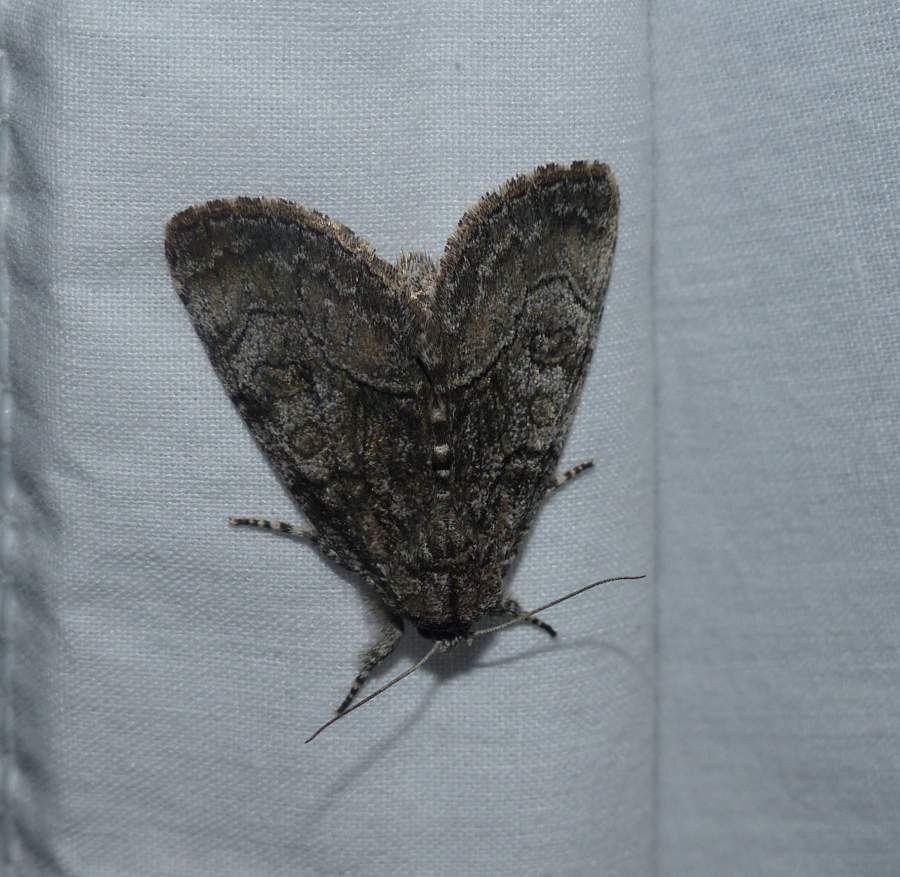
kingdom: Animalia
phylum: Arthropoda
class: Insecta
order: Lepidoptera
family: Noctuidae
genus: Raphia
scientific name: Raphia frater
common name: Brother
